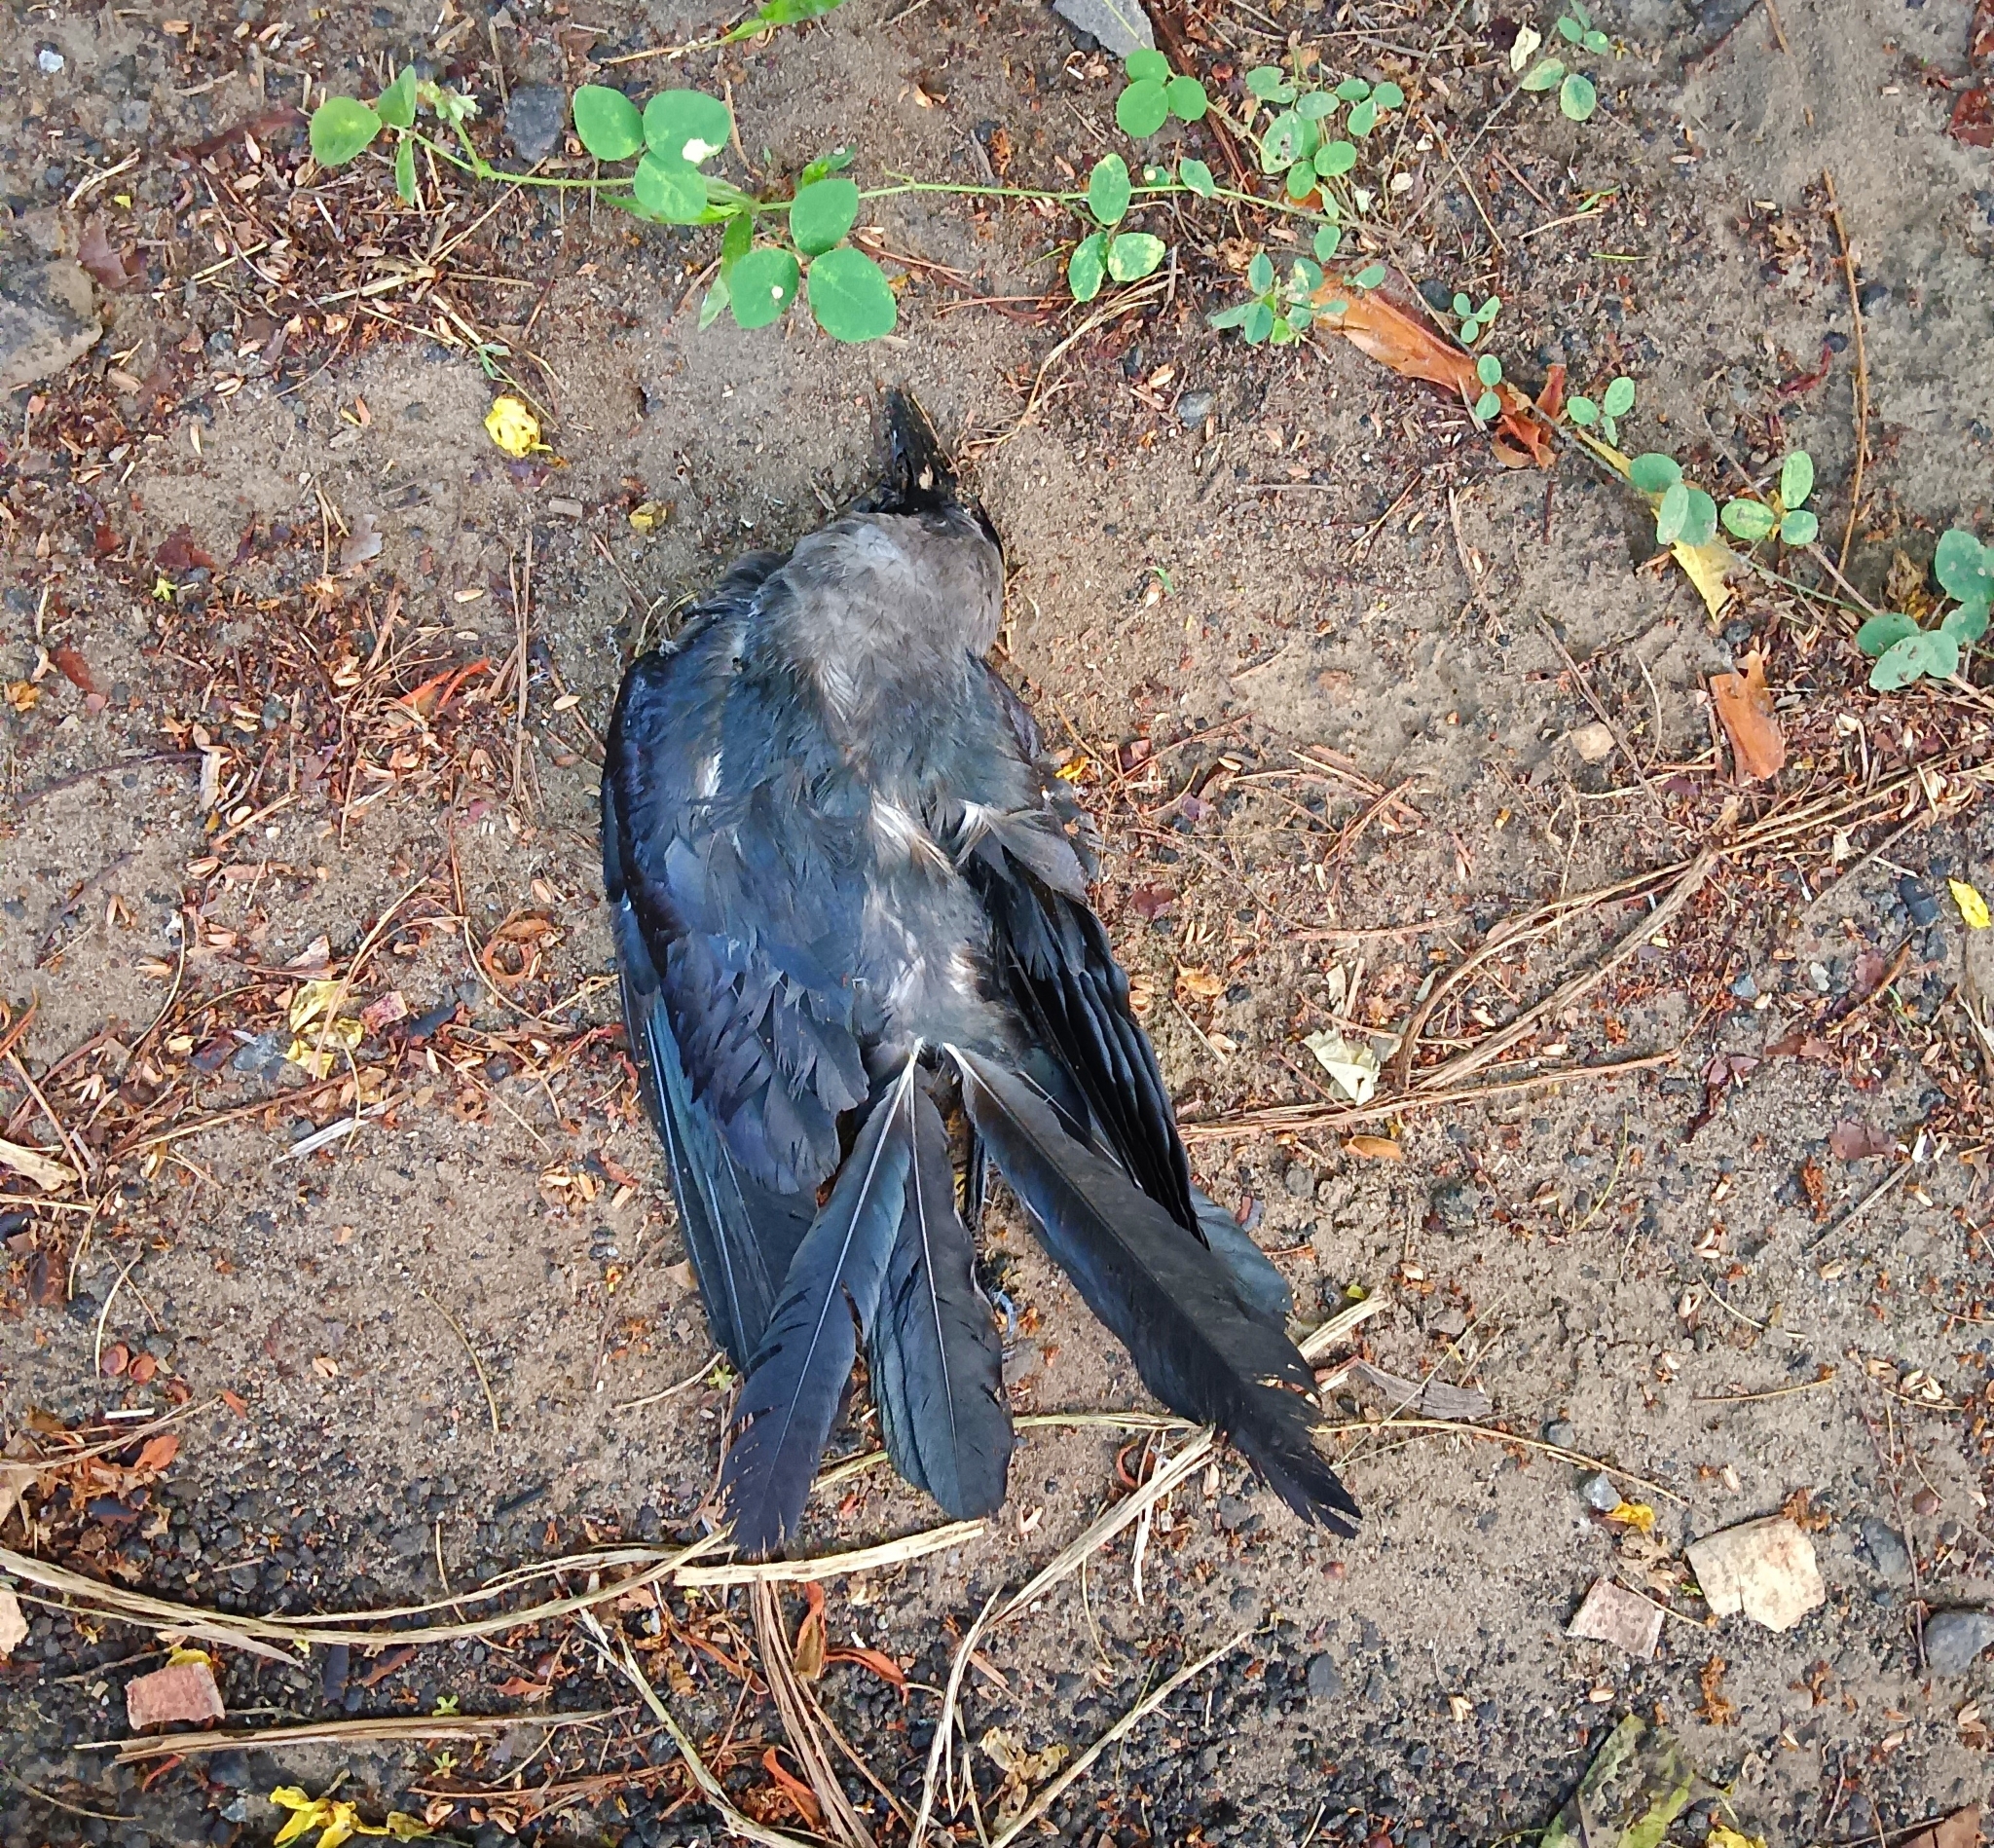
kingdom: Animalia
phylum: Chordata
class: Aves
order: Passeriformes
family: Corvidae
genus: Corvus
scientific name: Corvus splendens
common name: House crow
